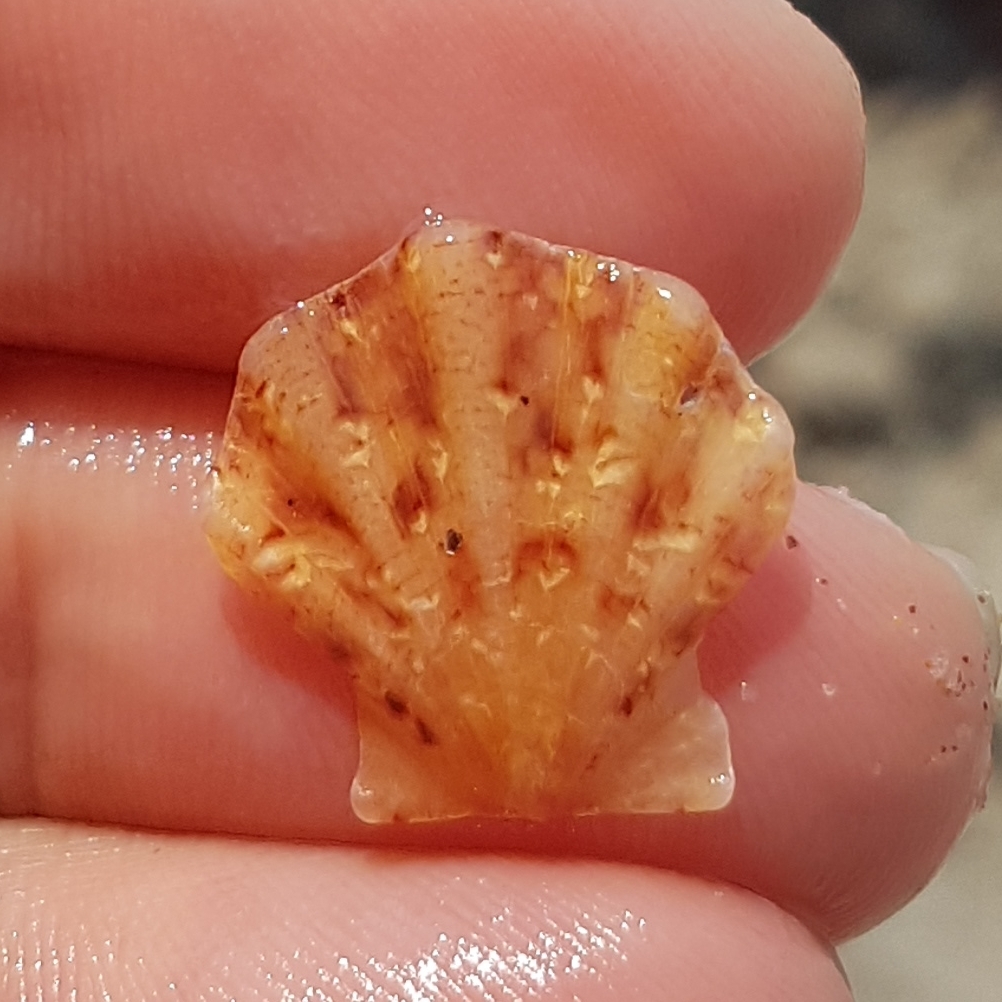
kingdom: Animalia
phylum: Mollusca
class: Bivalvia
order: Pectinida
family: Pectinidae
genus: Flexopecten
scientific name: Flexopecten flexuosus
